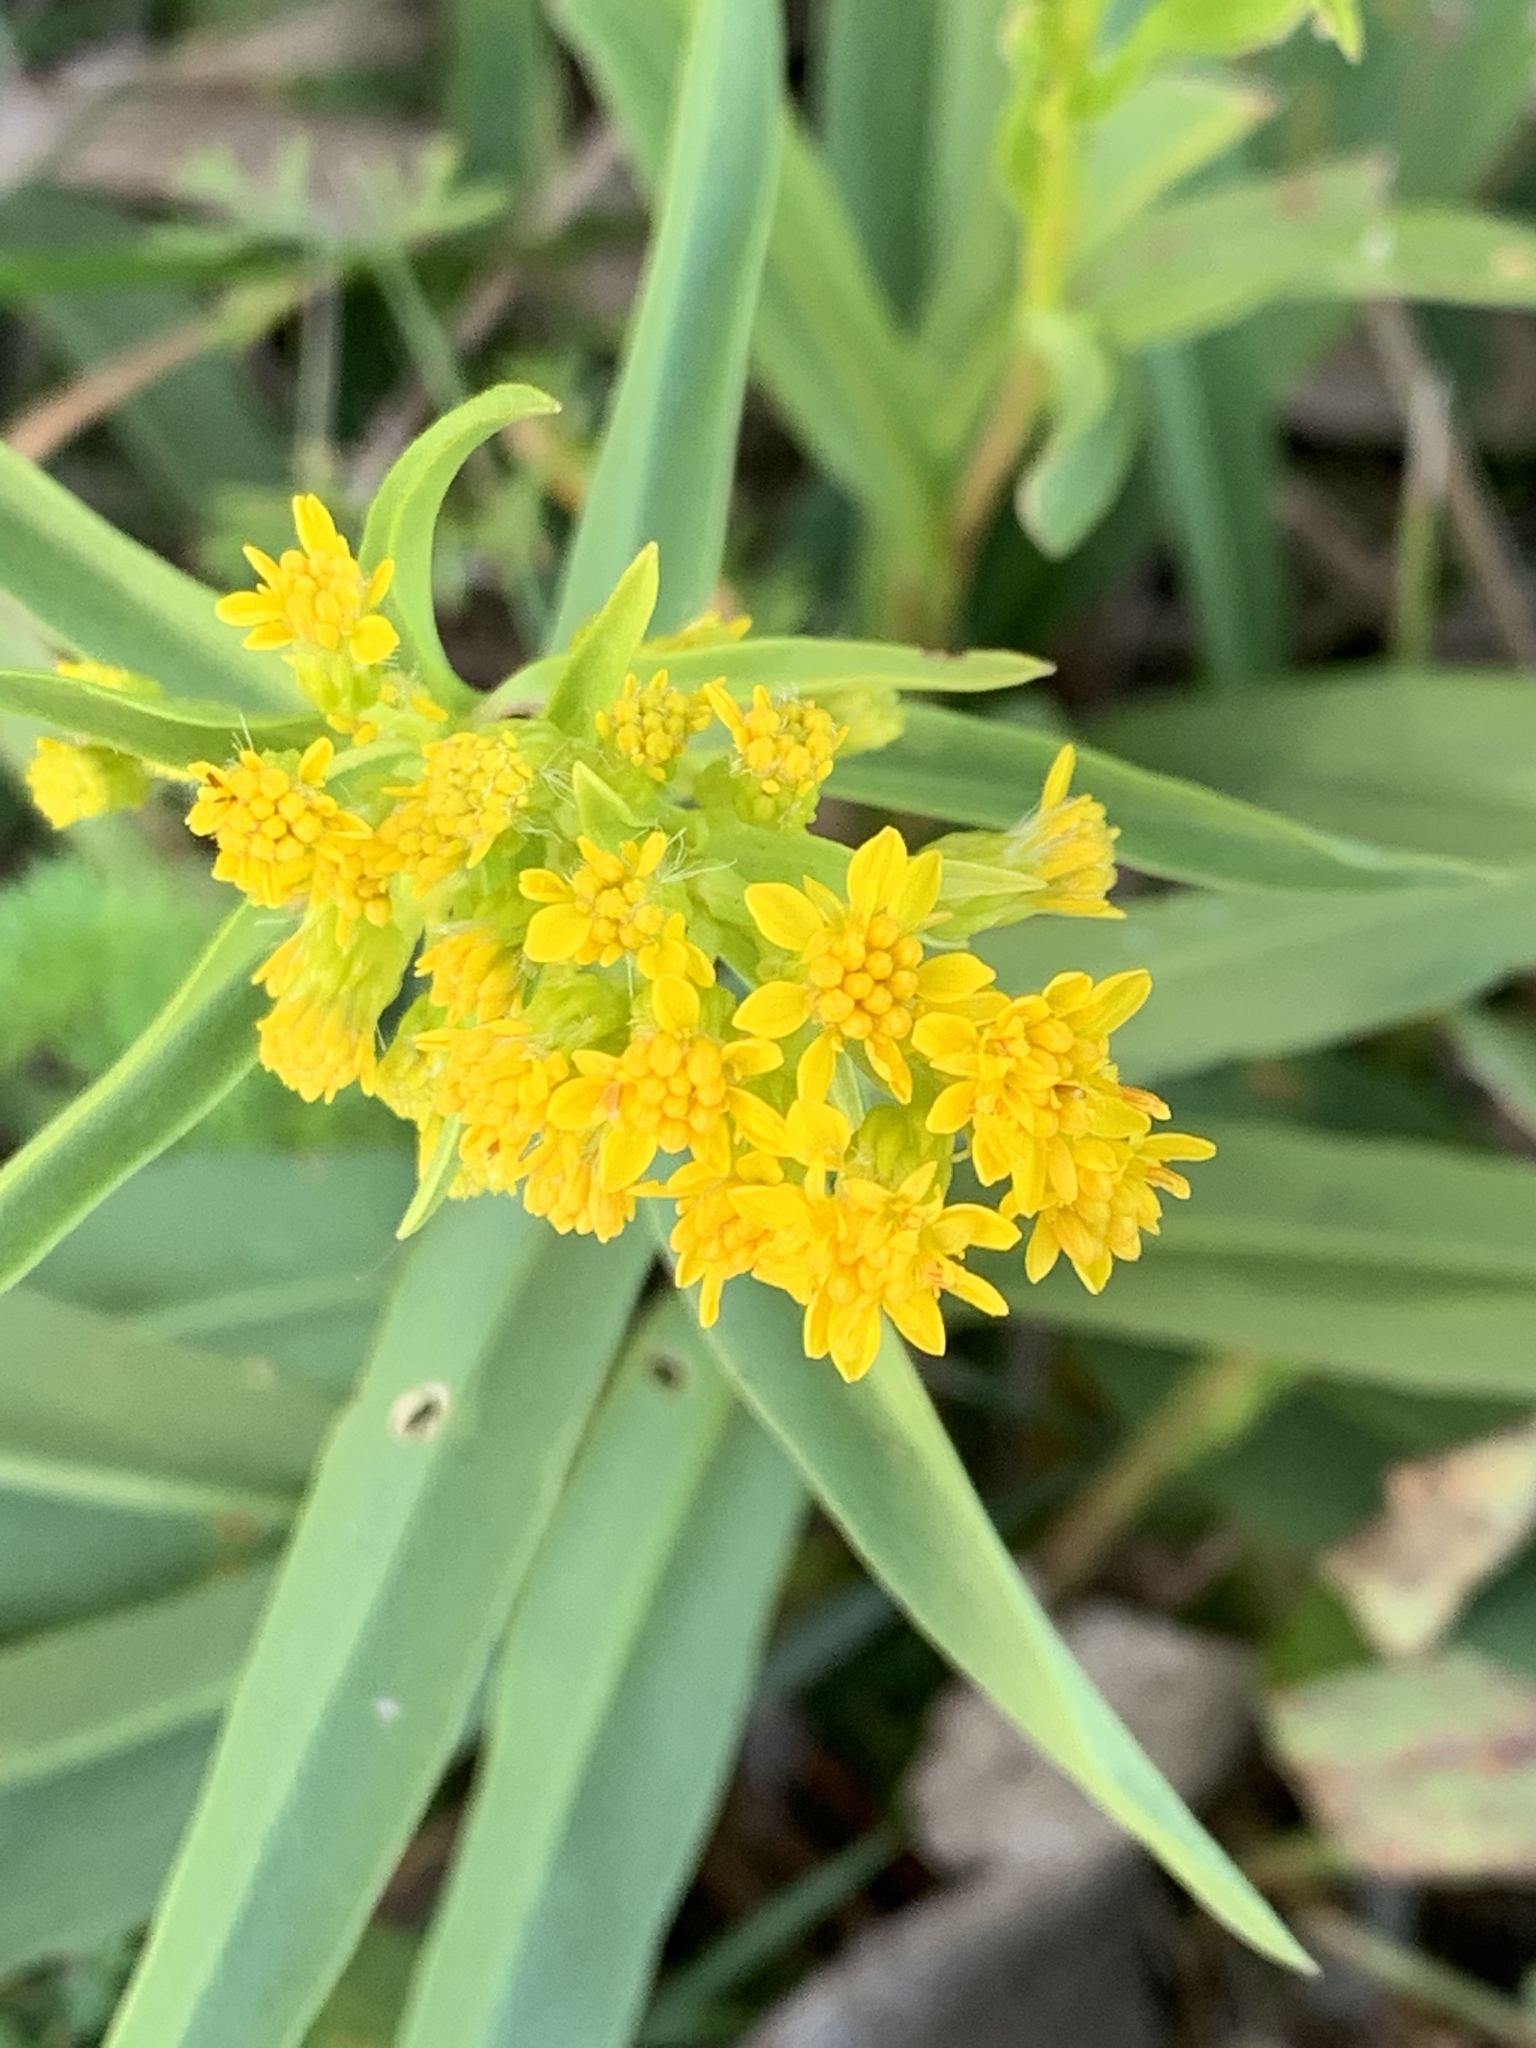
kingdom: Plantae
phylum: Tracheophyta
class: Magnoliopsida
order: Asterales
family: Asteraceae
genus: Solidago
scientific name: Solidago sempervirens
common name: Salt-marsh goldenrod
